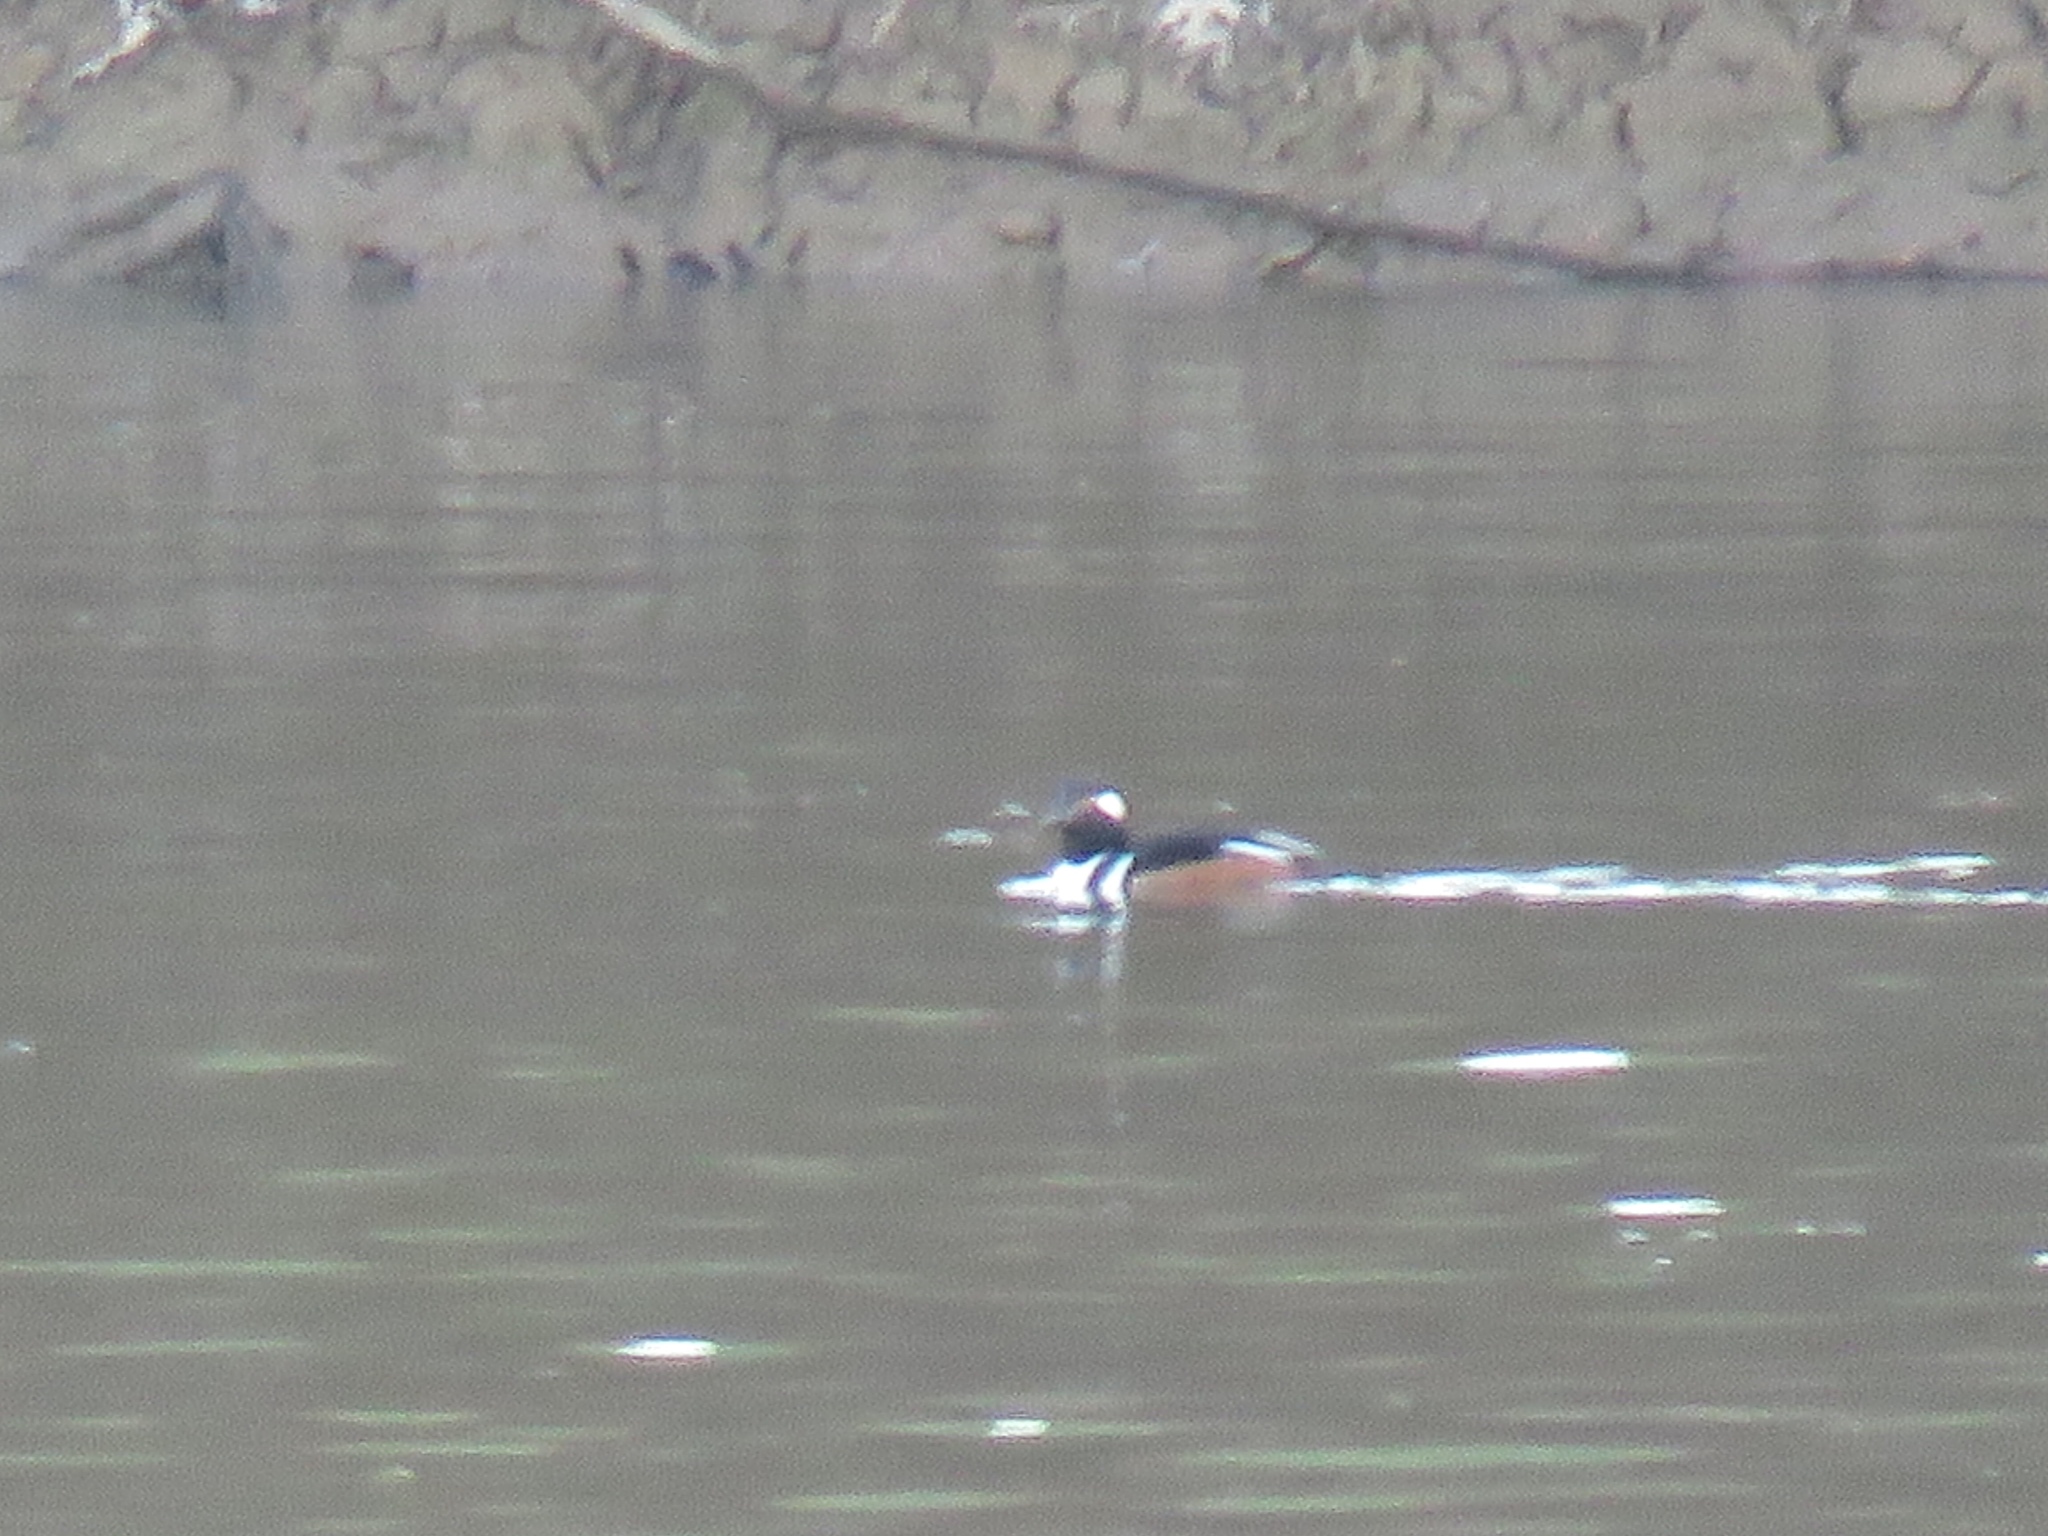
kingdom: Animalia
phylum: Chordata
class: Aves
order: Anseriformes
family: Anatidae
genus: Lophodytes
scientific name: Lophodytes cucullatus
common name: Hooded merganser
